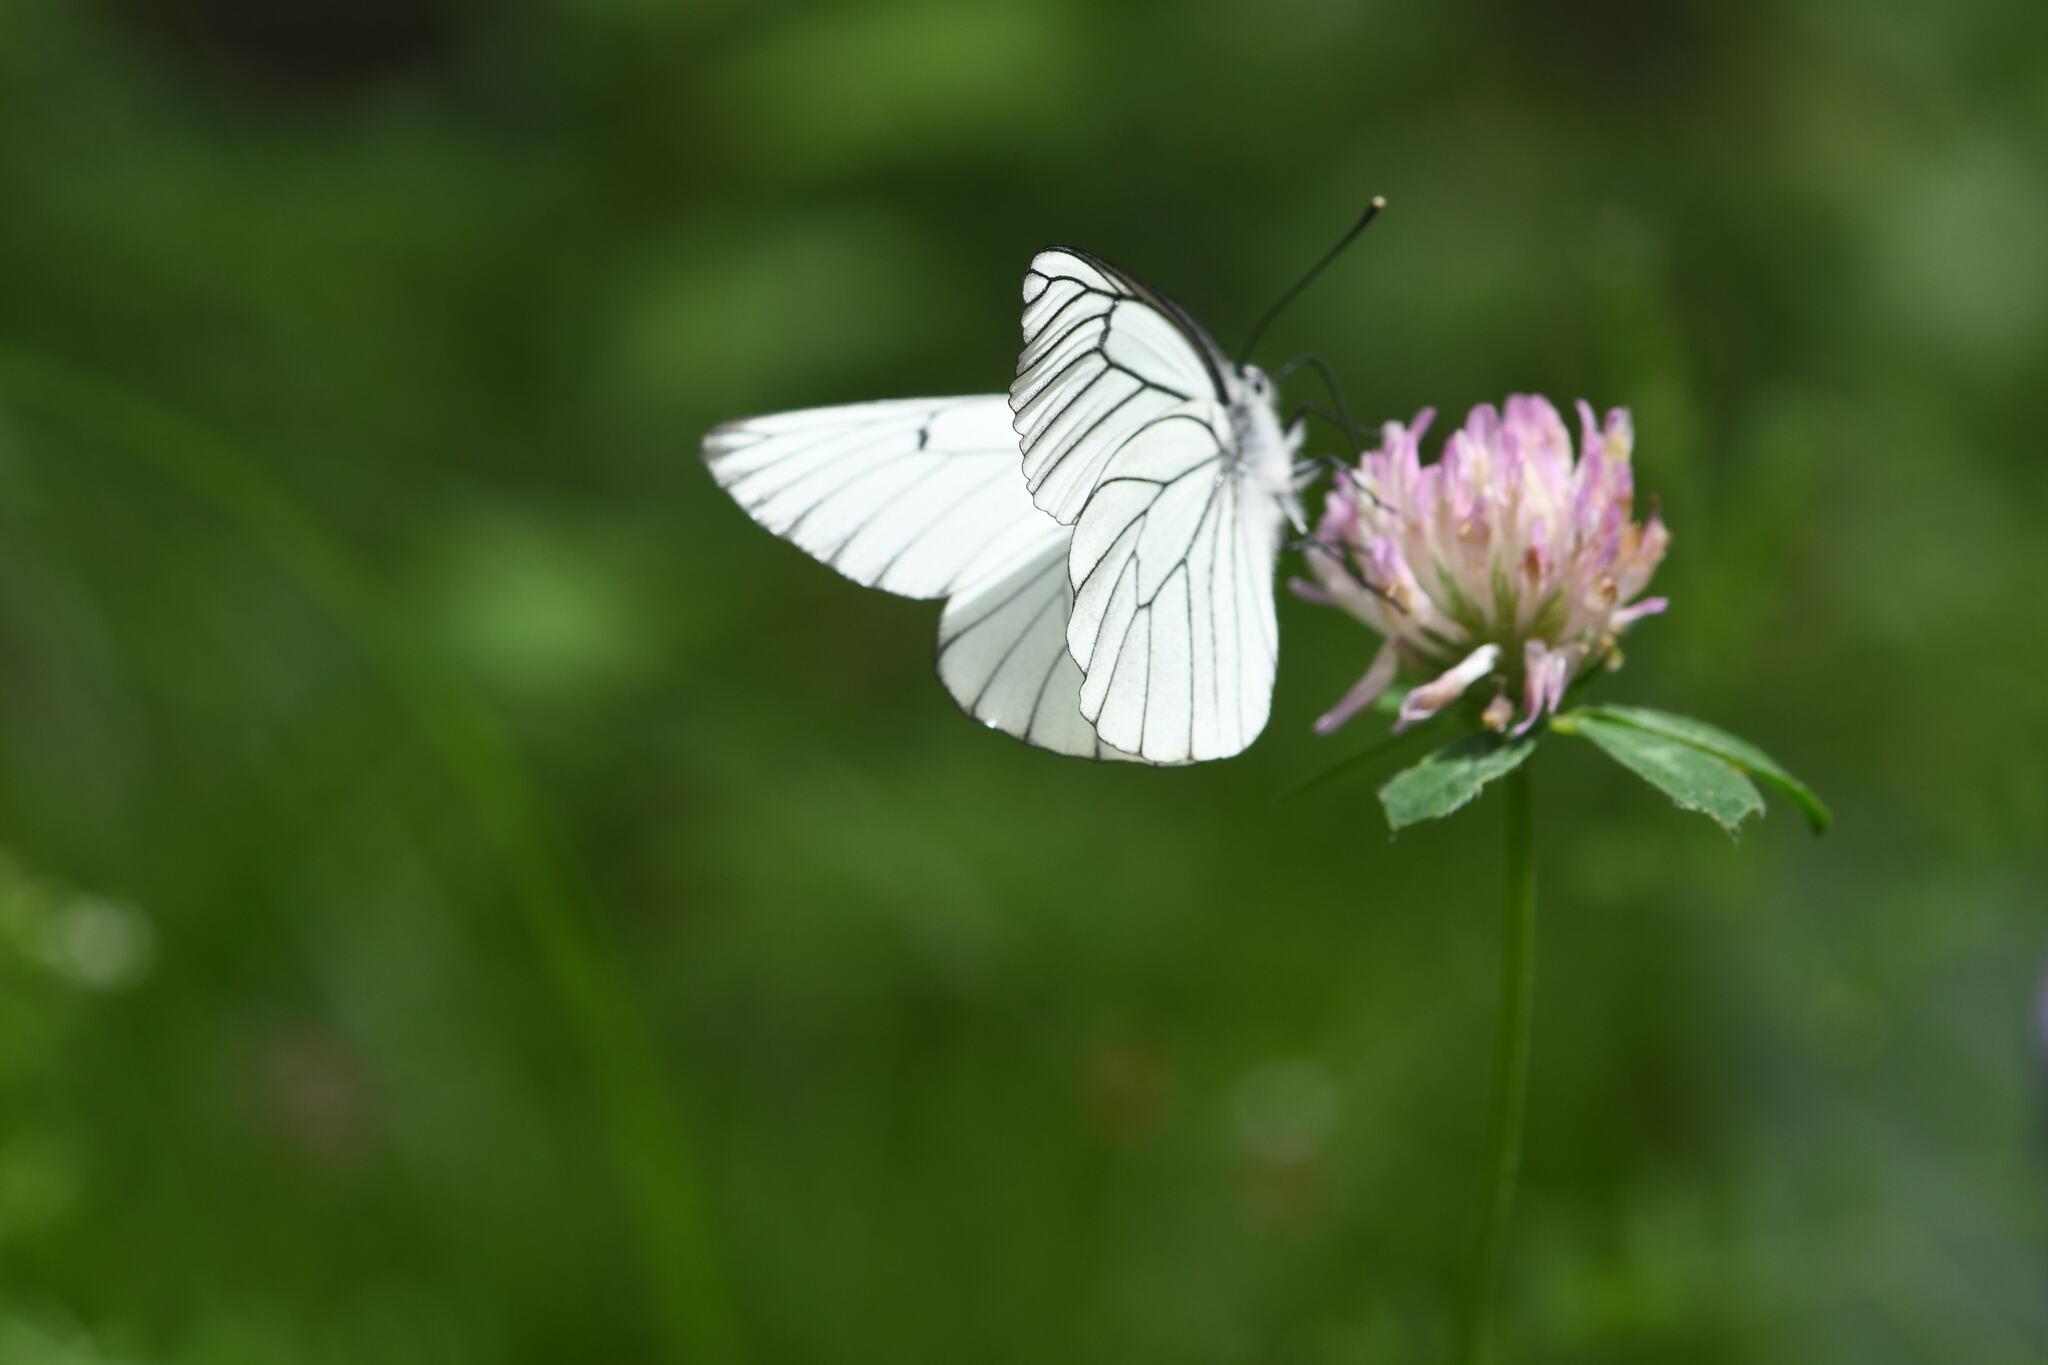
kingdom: Animalia
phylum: Arthropoda
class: Insecta
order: Lepidoptera
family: Pieridae
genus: Aporia
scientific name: Aporia crataegi
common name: Black-veined white
